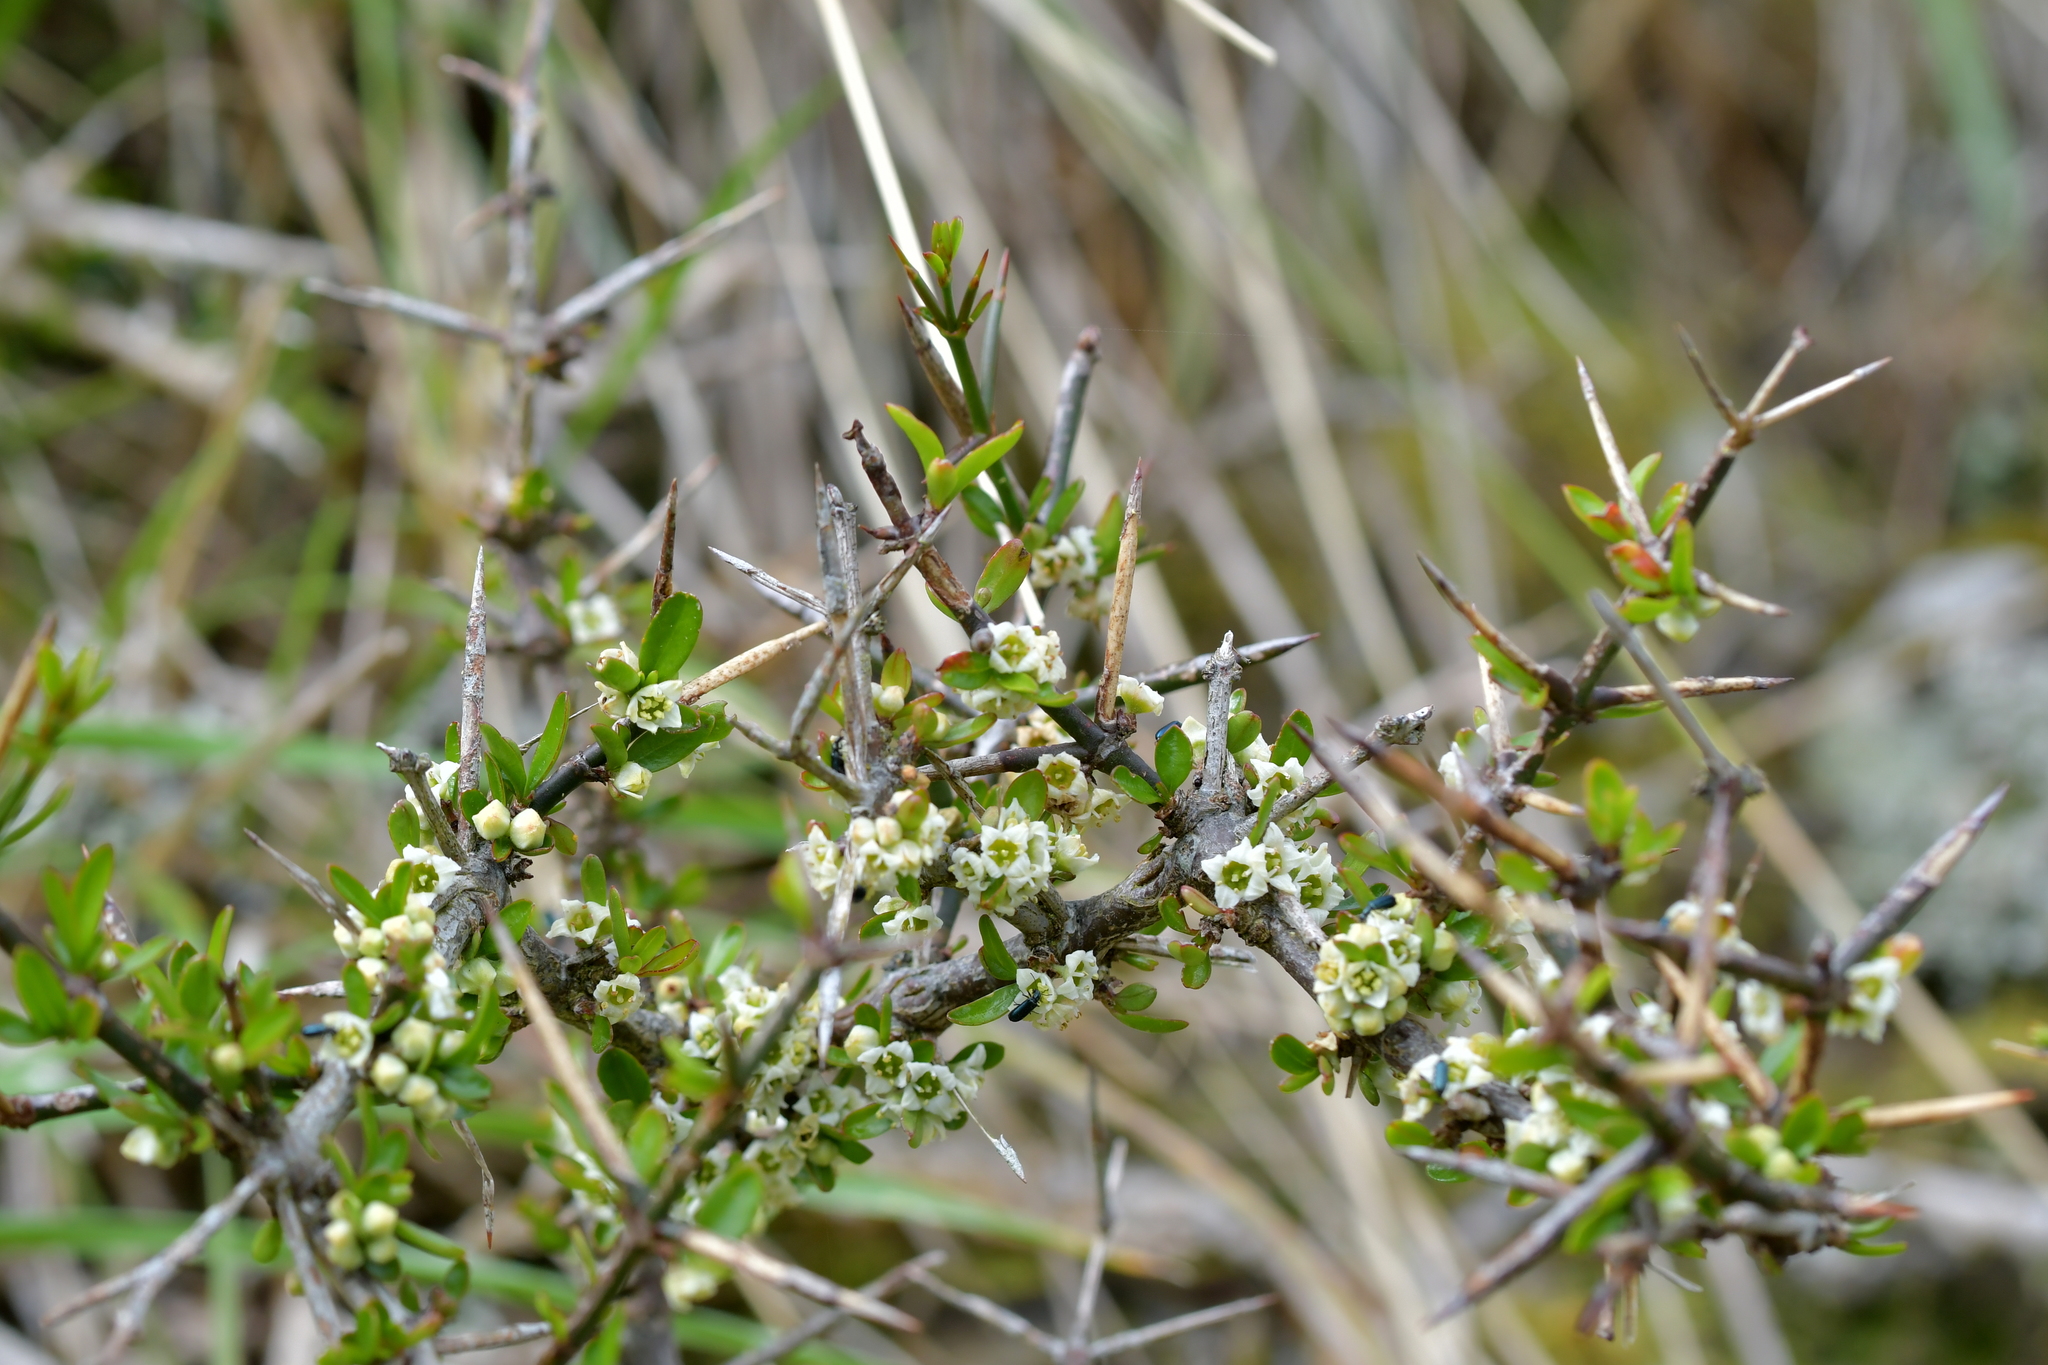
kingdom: Plantae
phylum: Tracheophyta
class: Magnoliopsida
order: Rosales
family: Rhamnaceae
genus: Discaria
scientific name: Discaria toumatou
